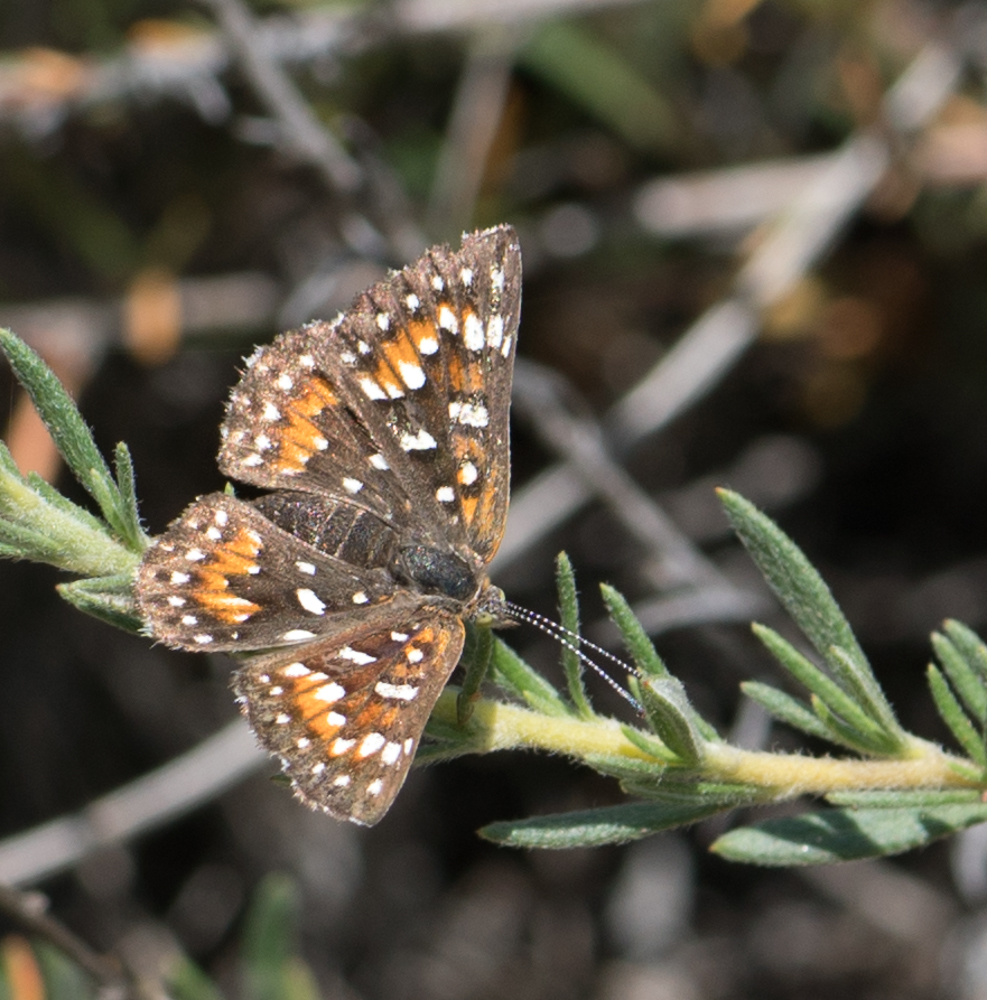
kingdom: Animalia
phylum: Arthropoda
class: Insecta
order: Lepidoptera
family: Riodinidae
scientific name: Riodinidae
